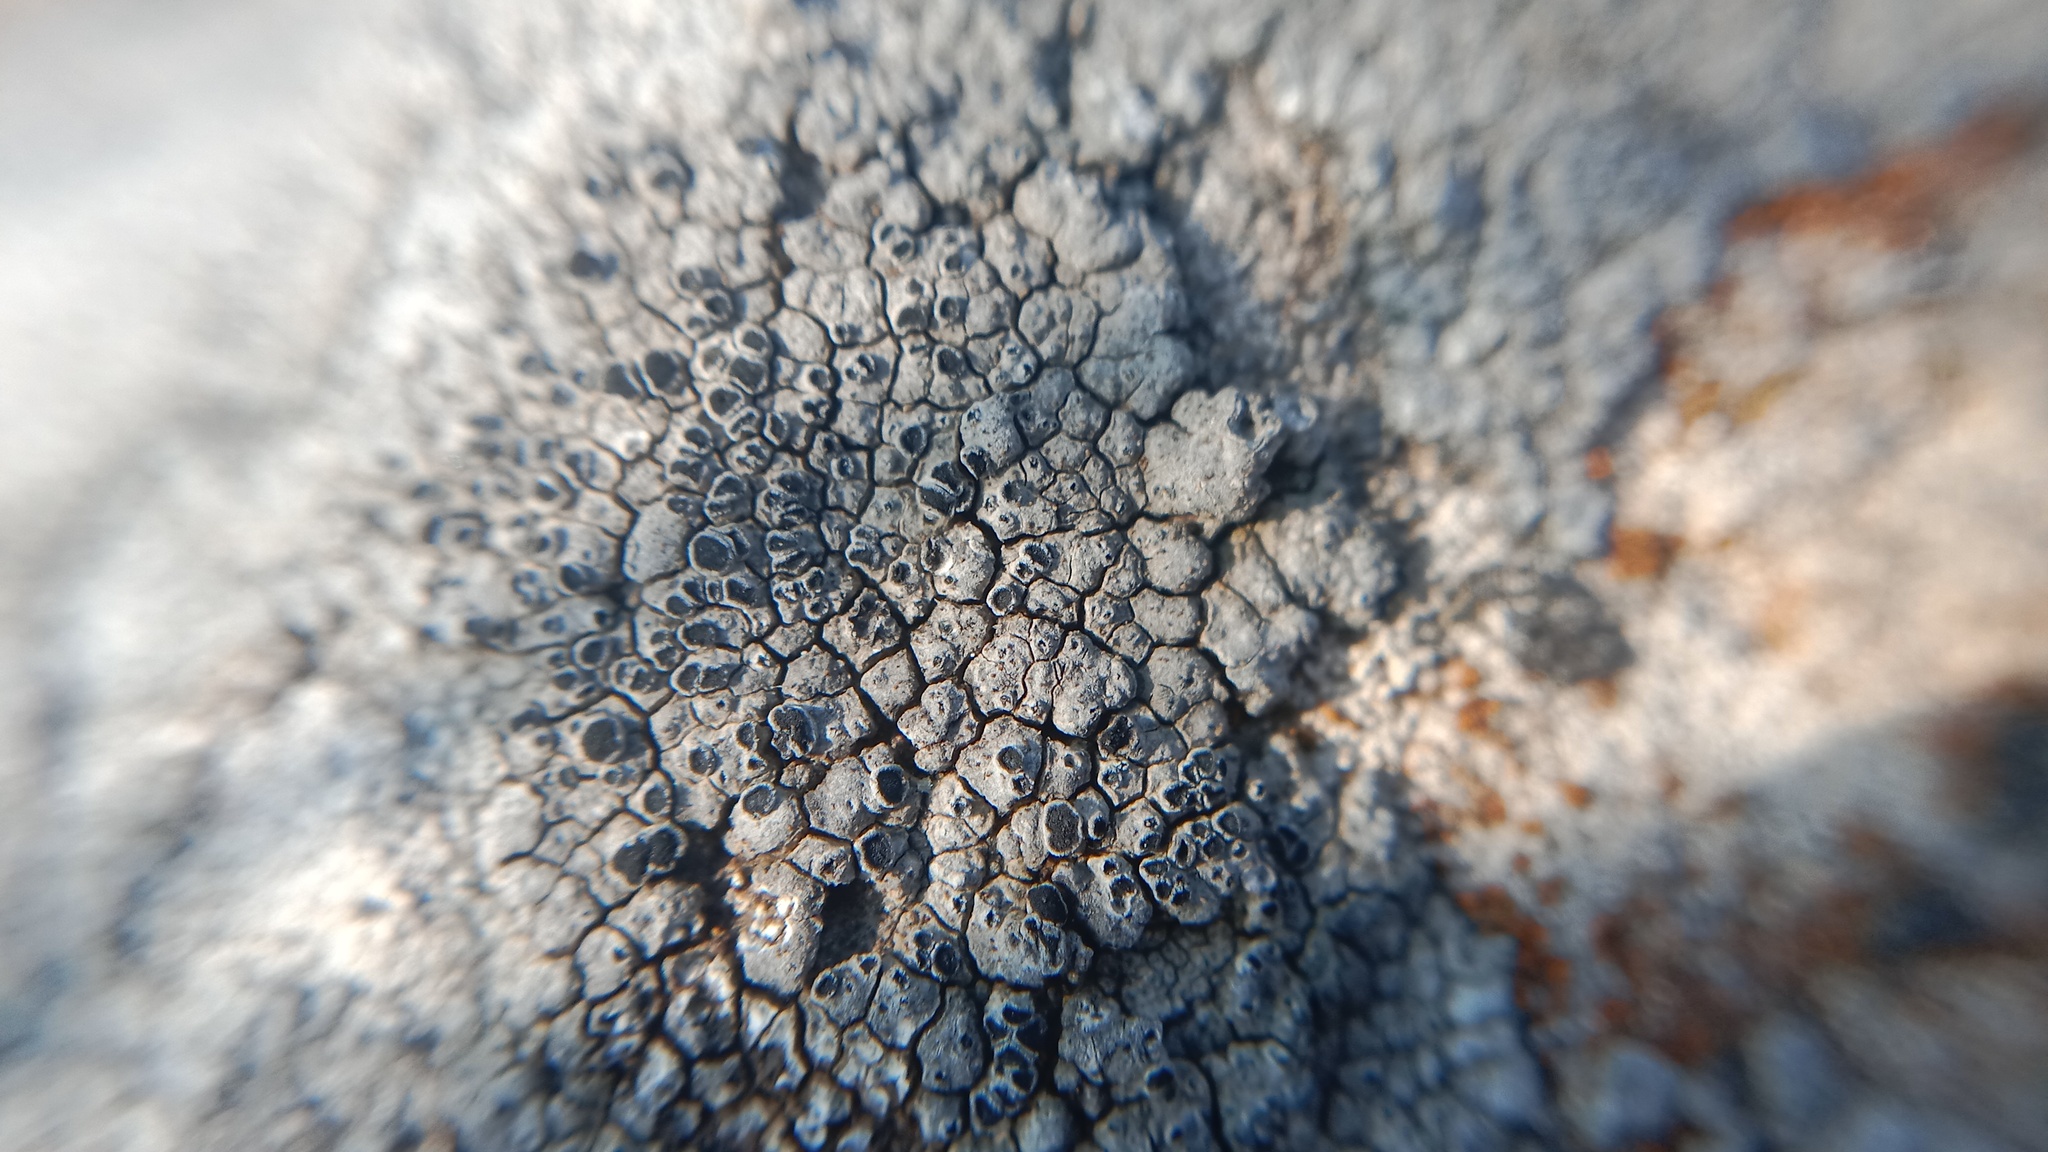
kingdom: Fungi
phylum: Ascomycota
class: Lecanoromycetes
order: Teloschistales
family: Teloschistaceae
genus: Pyrenodesmia
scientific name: Pyrenodesmia variabilis
